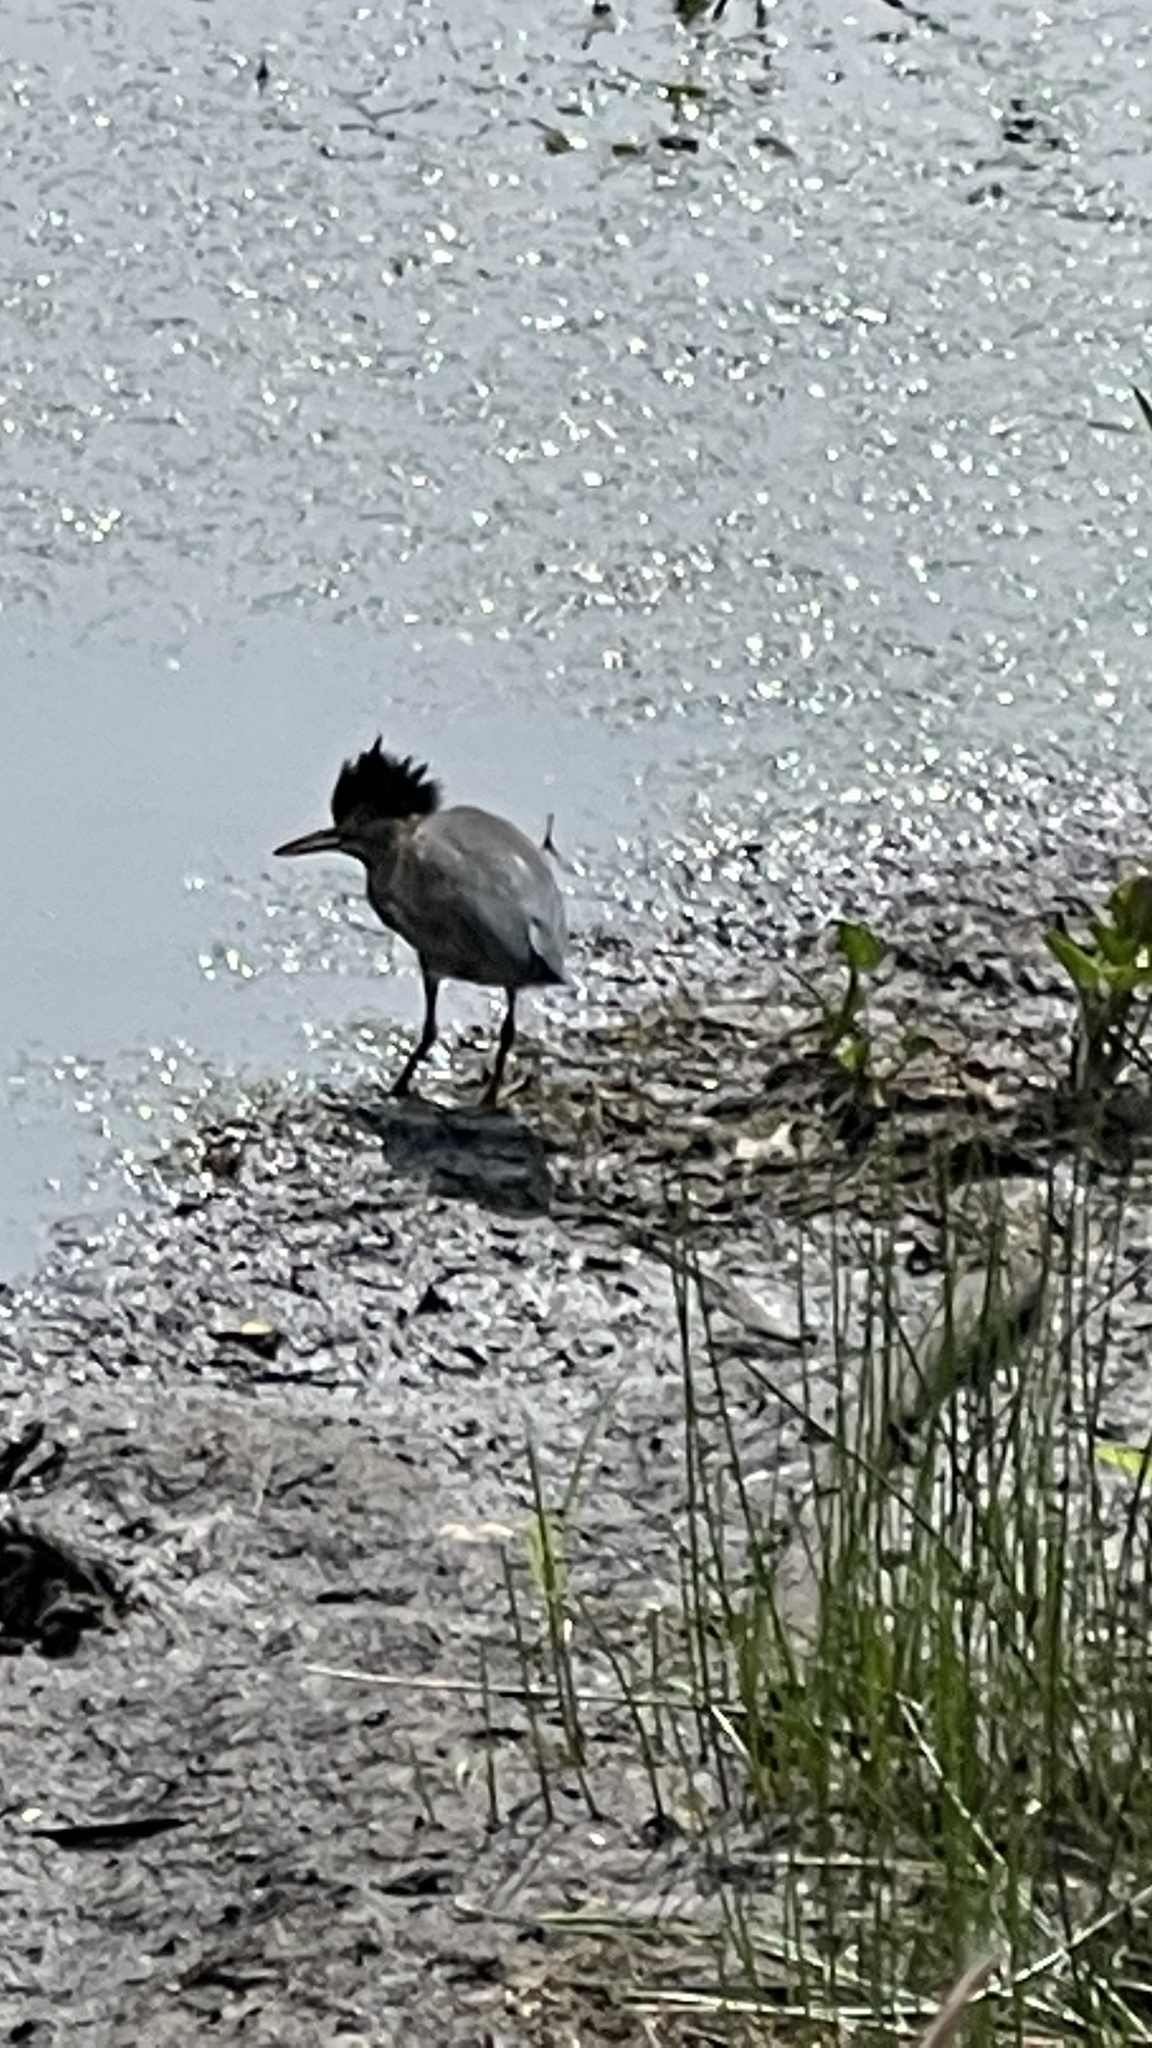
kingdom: Animalia
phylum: Chordata
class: Aves
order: Pelecaniformes
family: Ardeidae
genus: Butorides
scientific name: Butorides virescens
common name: Green heron
